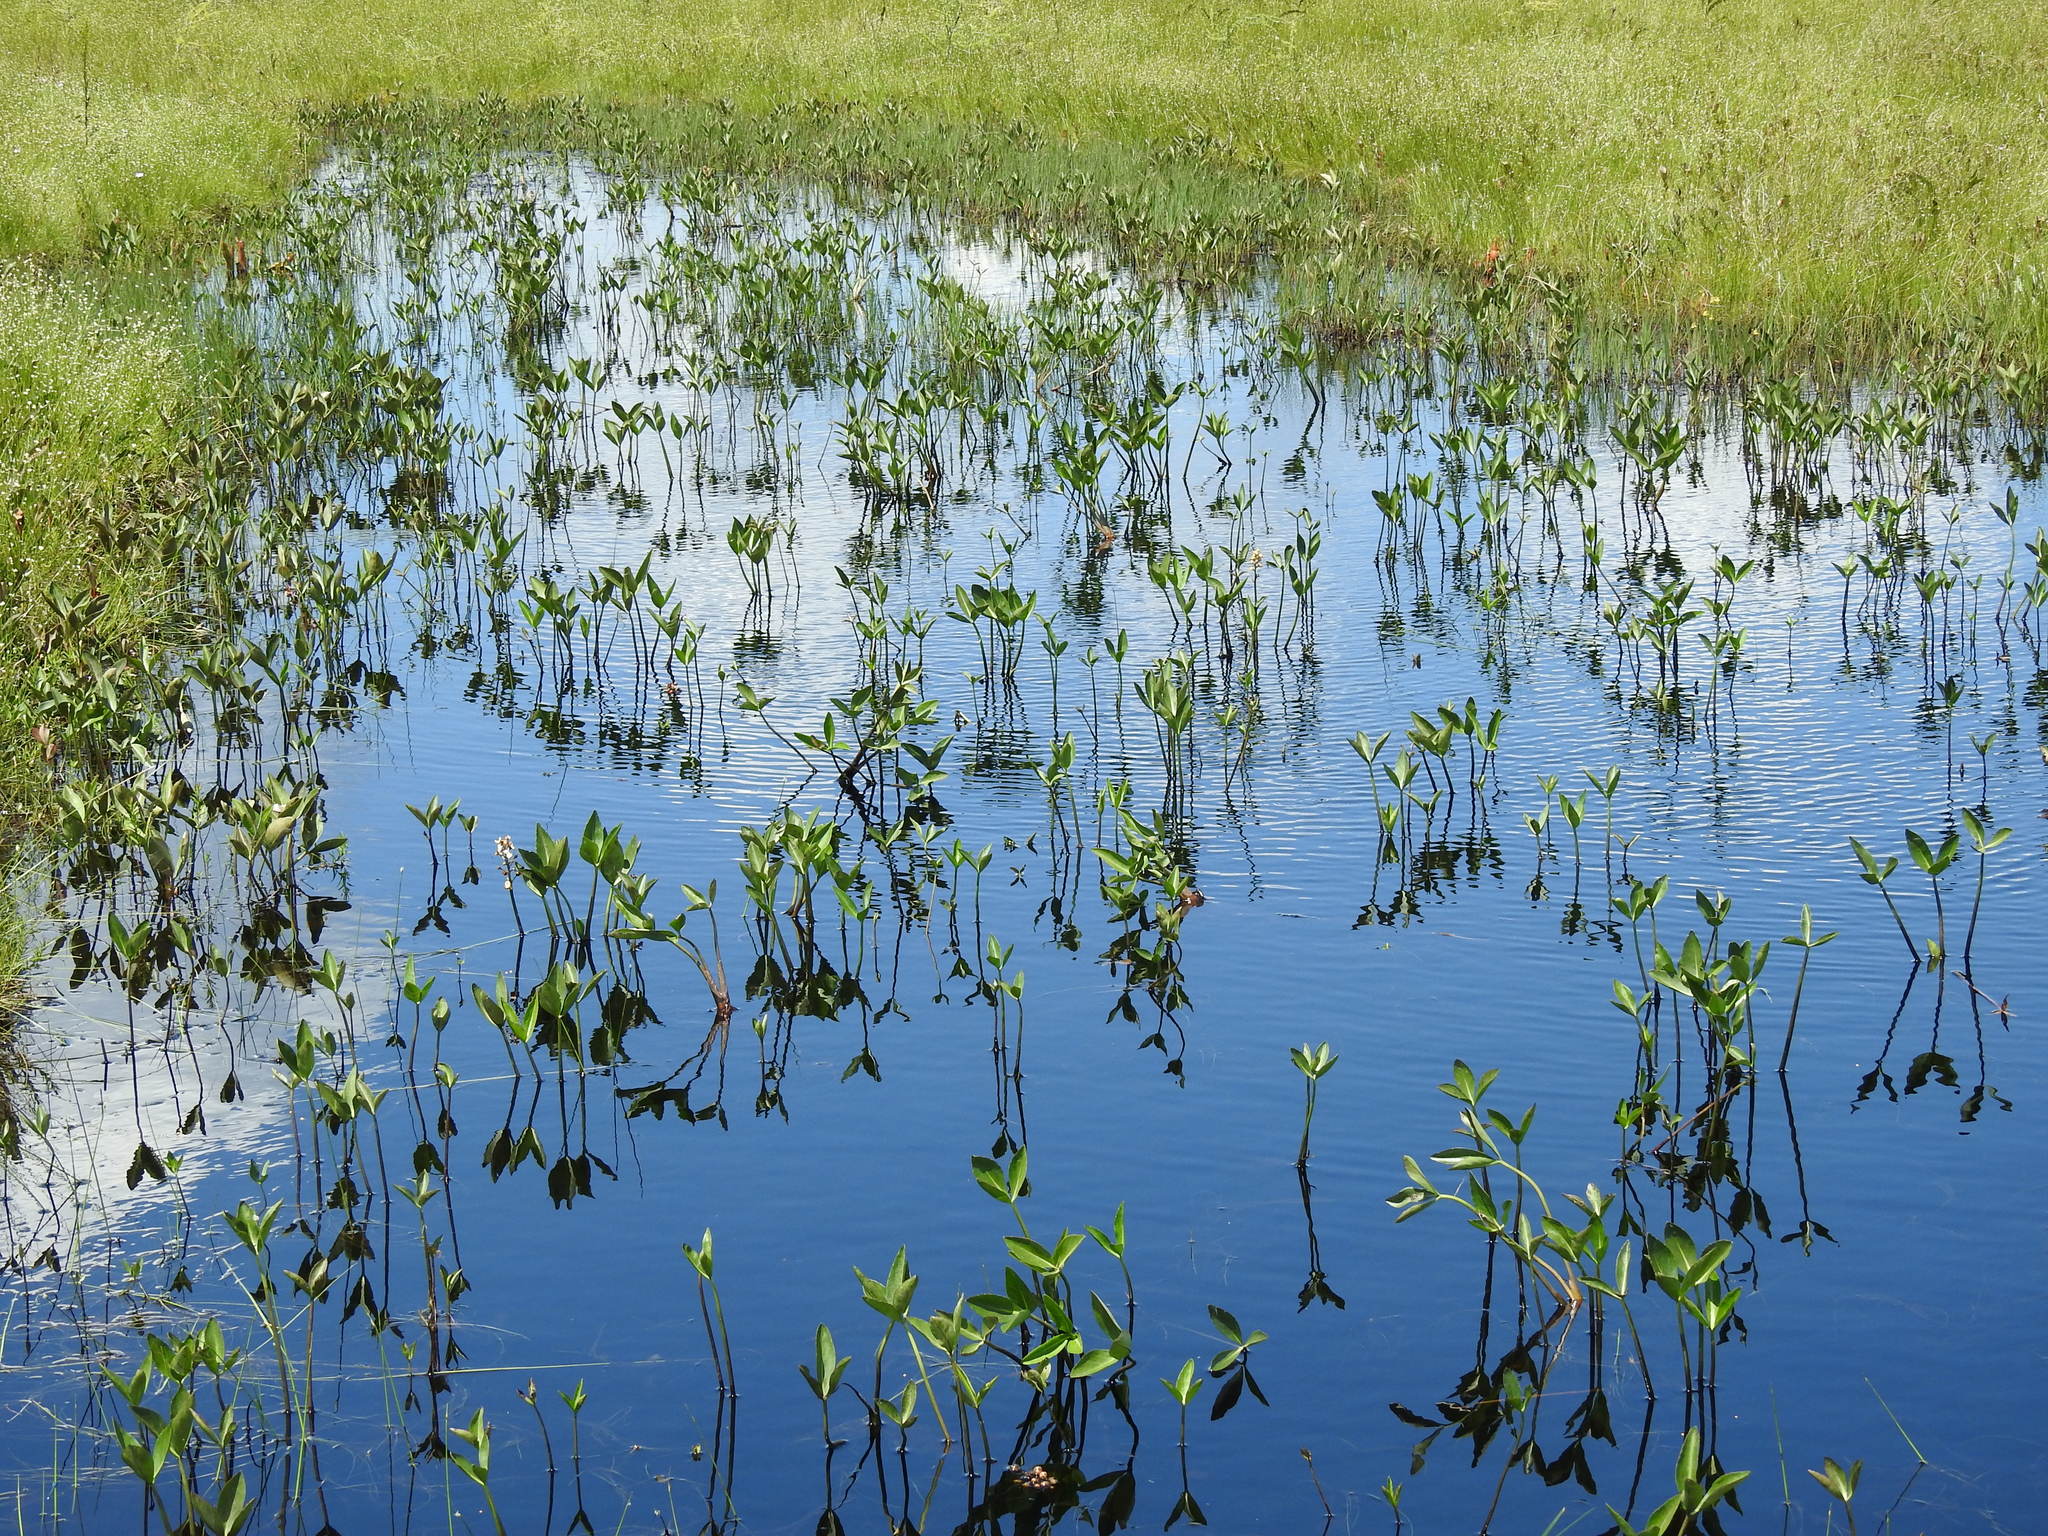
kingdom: Plantae
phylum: Tracheophyta
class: Magnoliopsida
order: Asterales
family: Menyanthaceae
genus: Menyanthes
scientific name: Menyanthes trifoliata
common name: Bogbean
